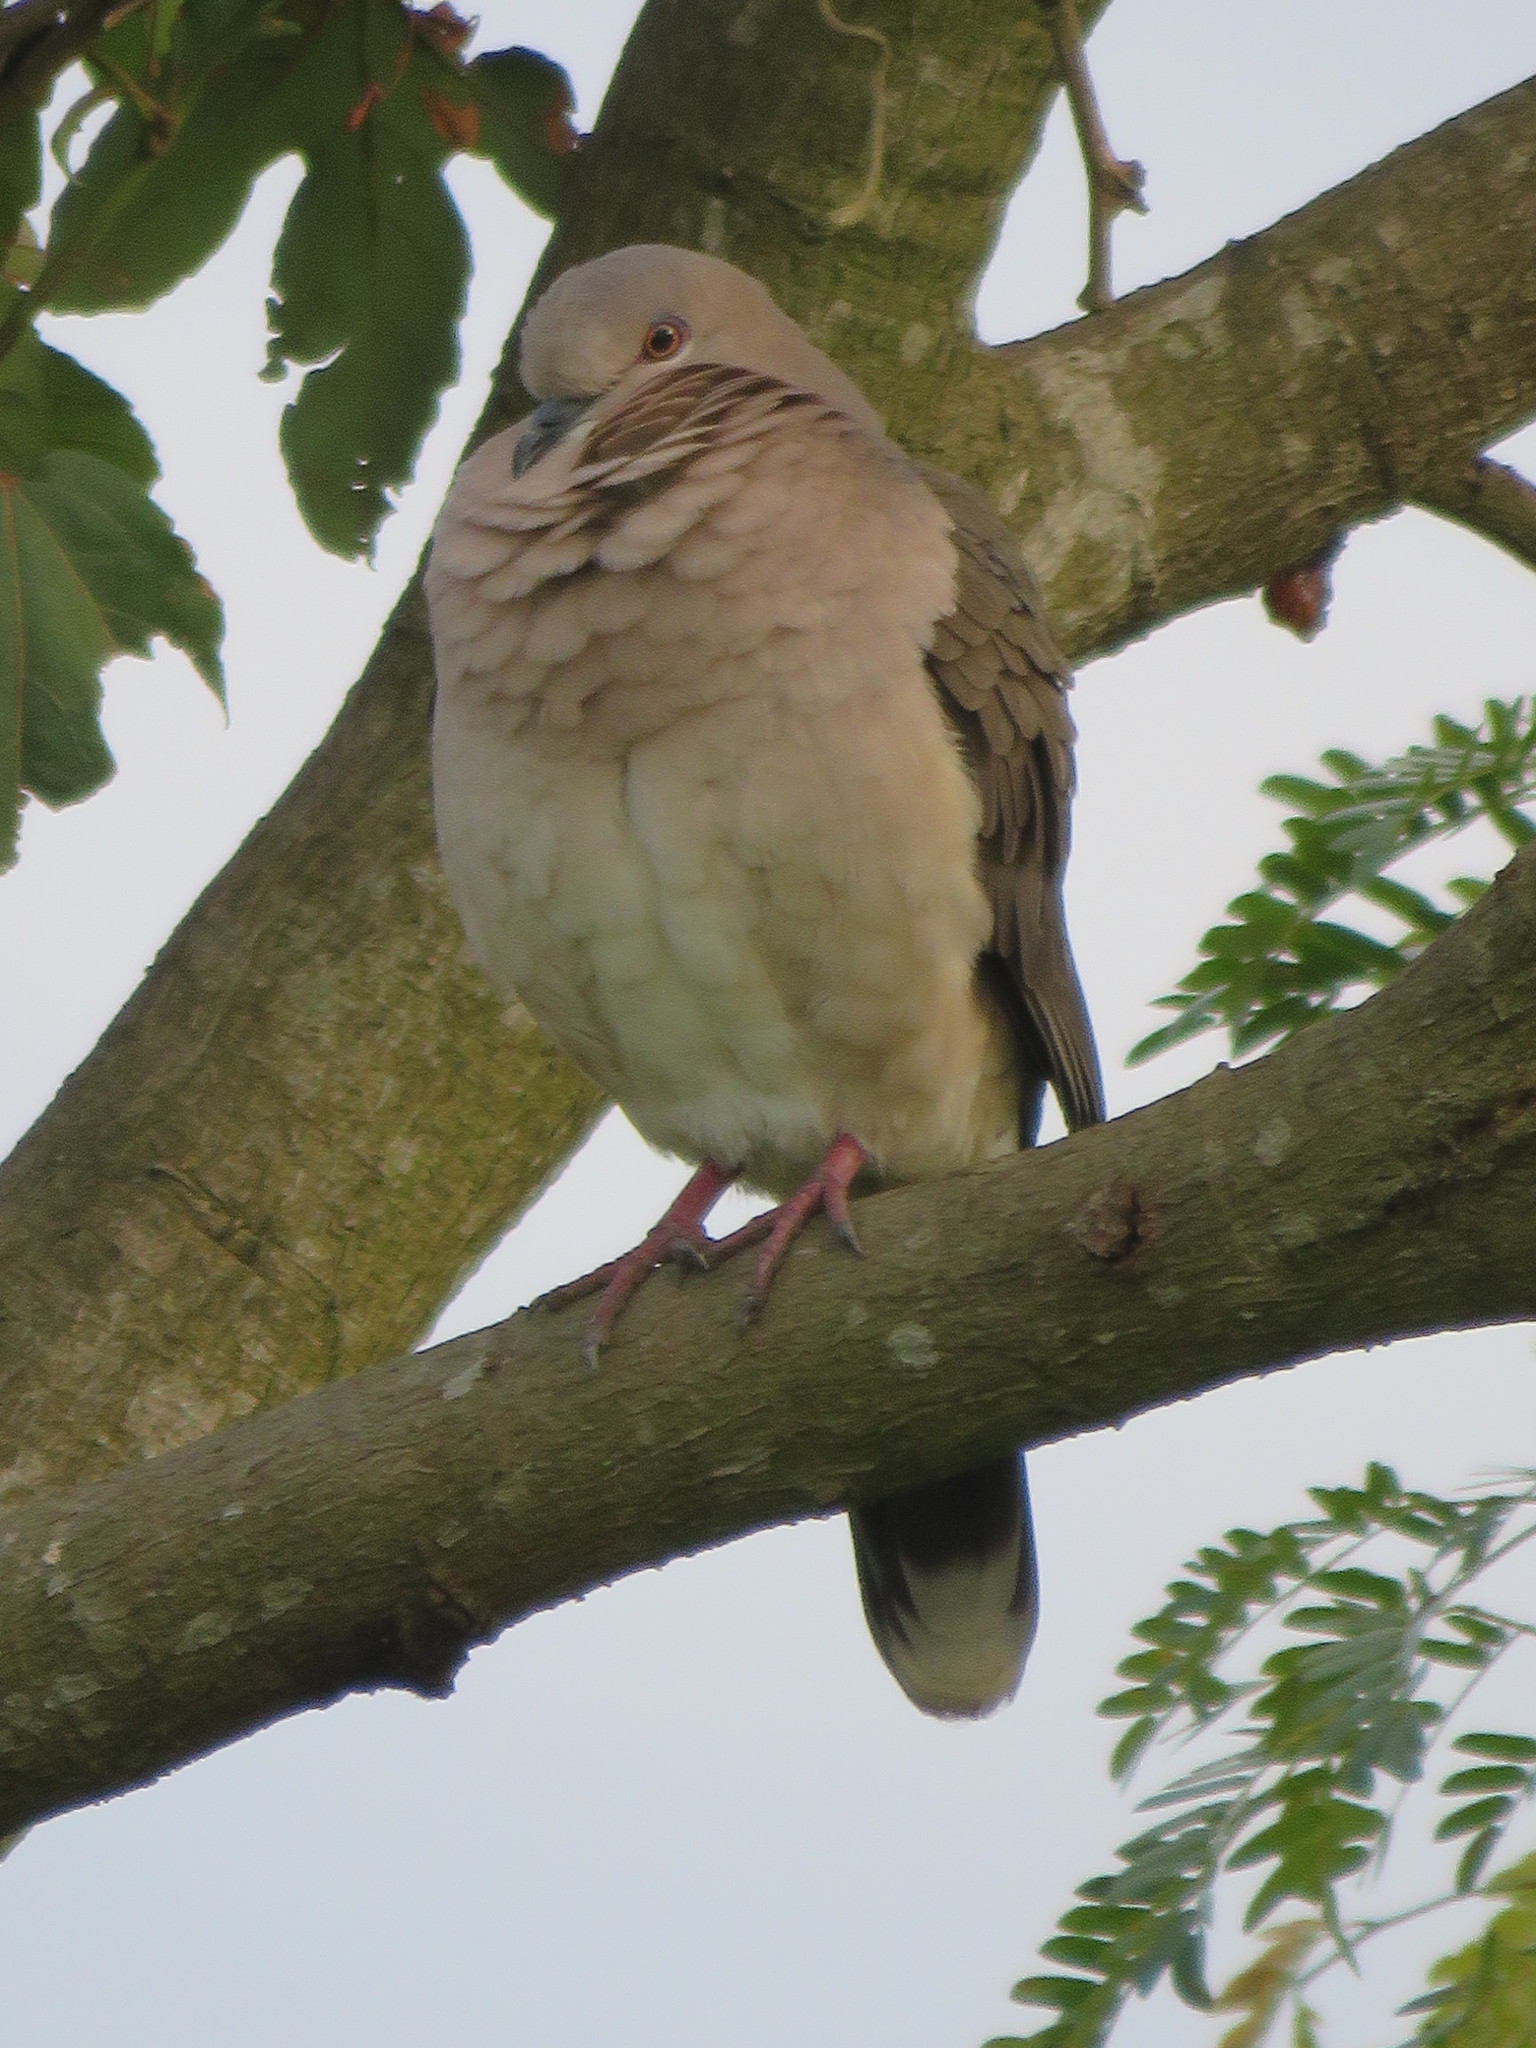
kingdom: Animalia
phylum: Chordata
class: Aves
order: Columbiformes
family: Columbidae
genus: Leptotila
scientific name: Leptotila verreauxi
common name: White-tipped dove
